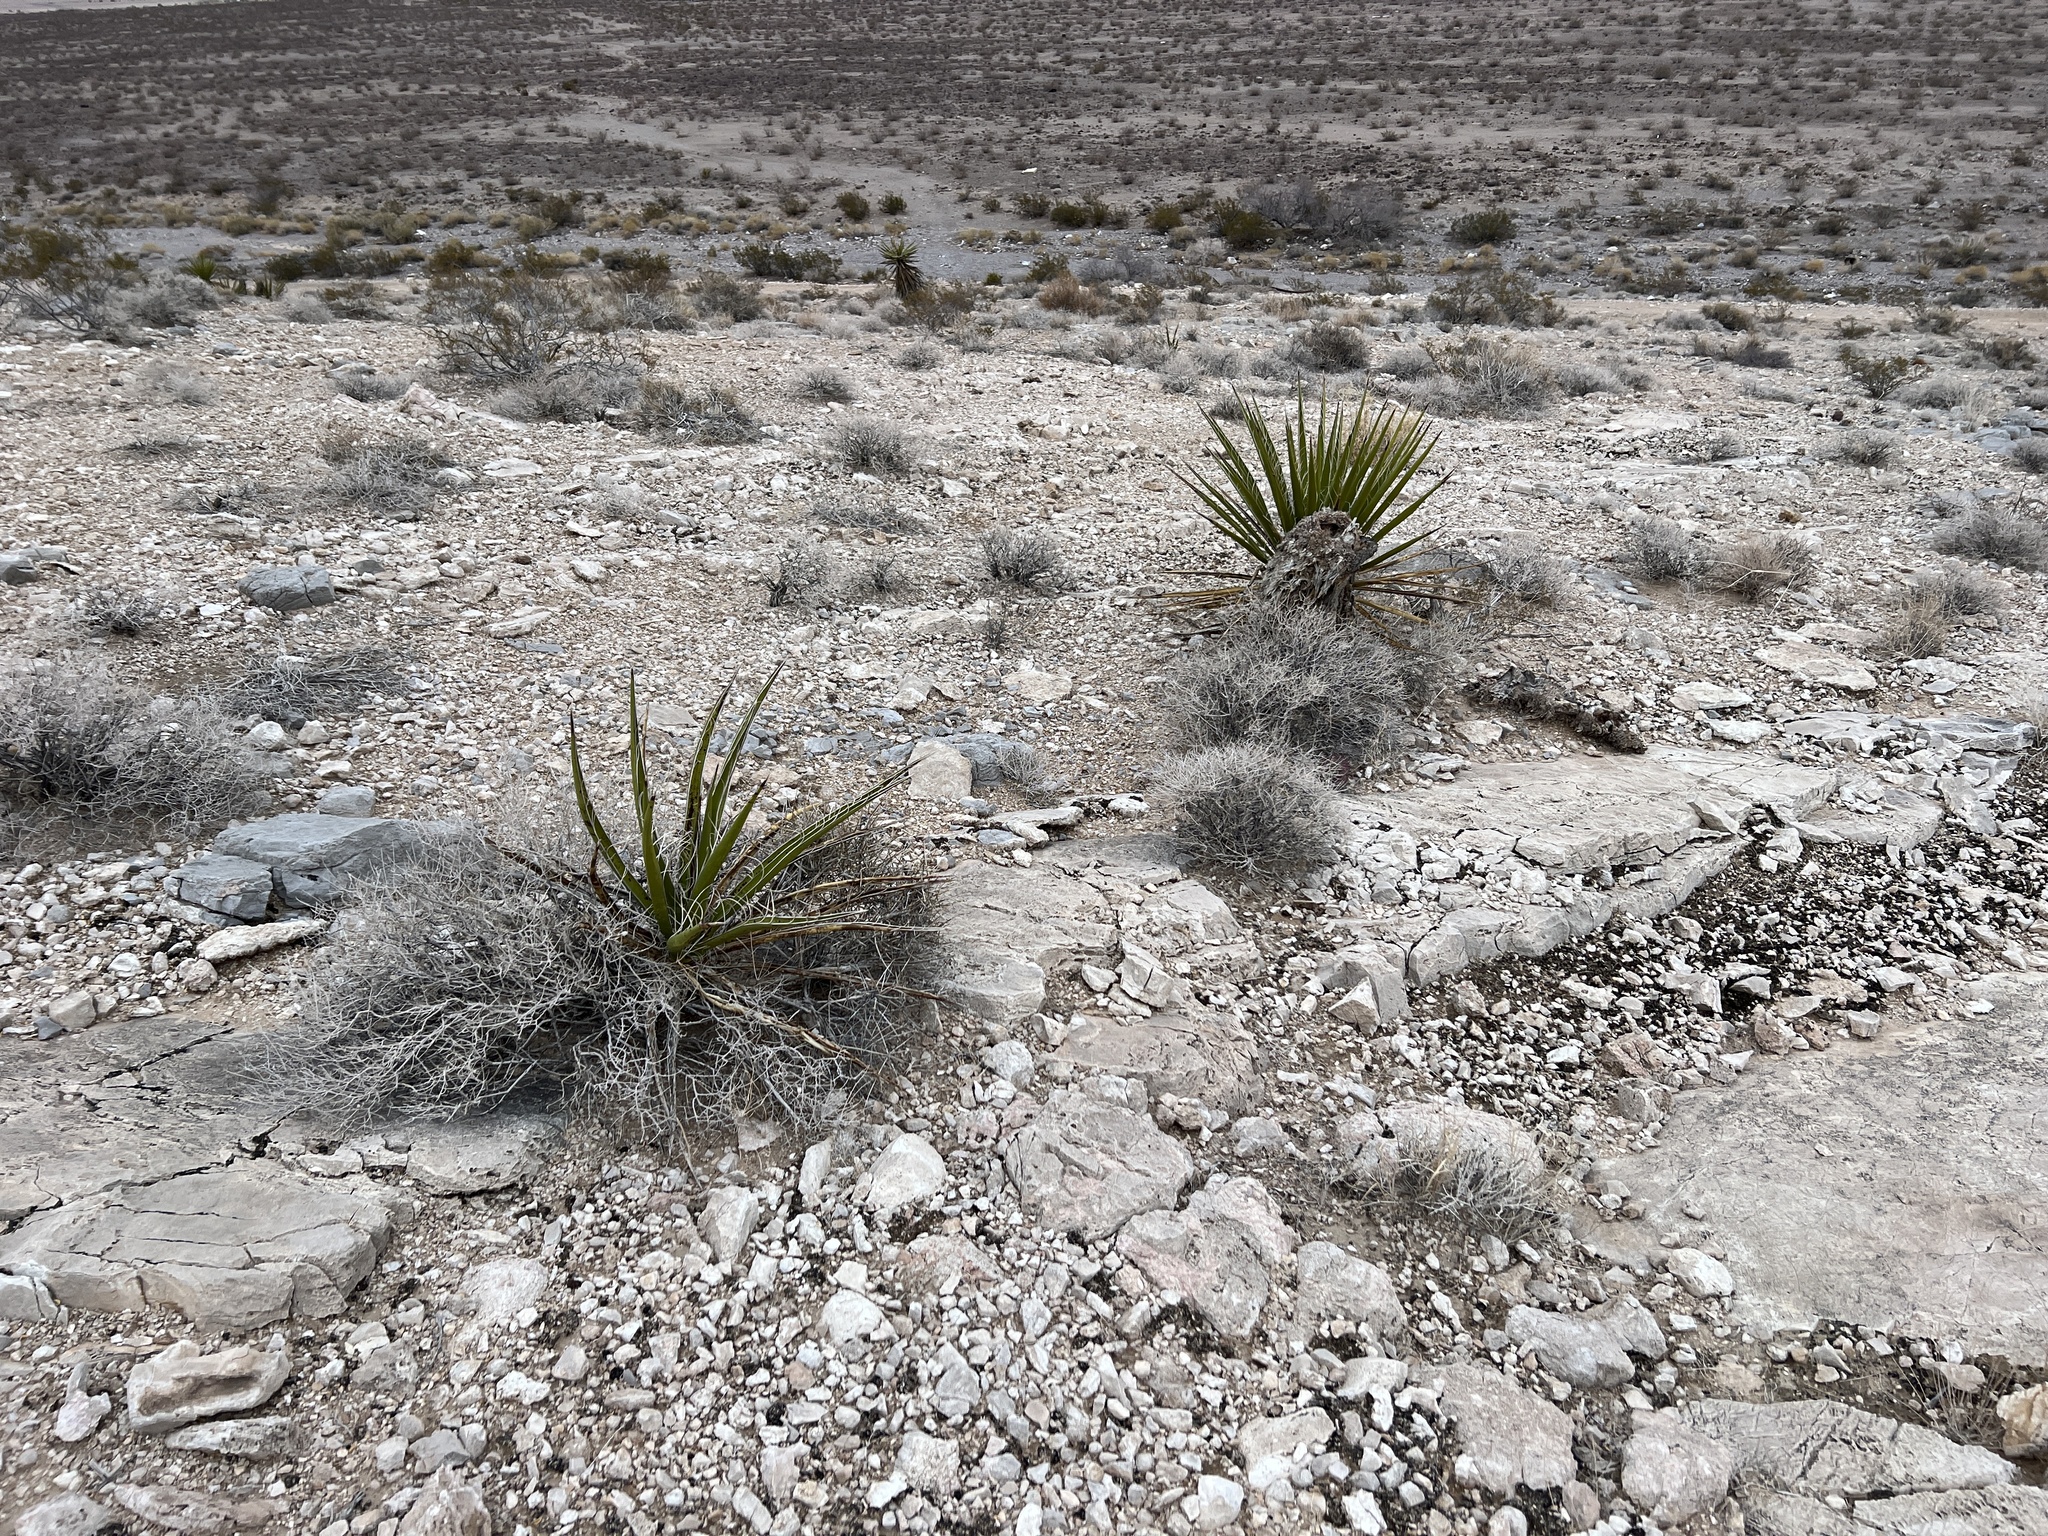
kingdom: Plantae
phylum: Tracheophyta
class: Liliopsida
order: Asparagales
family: Asparagaceae
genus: Yucca
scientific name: Yucca schidigera
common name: Mojave yucca
